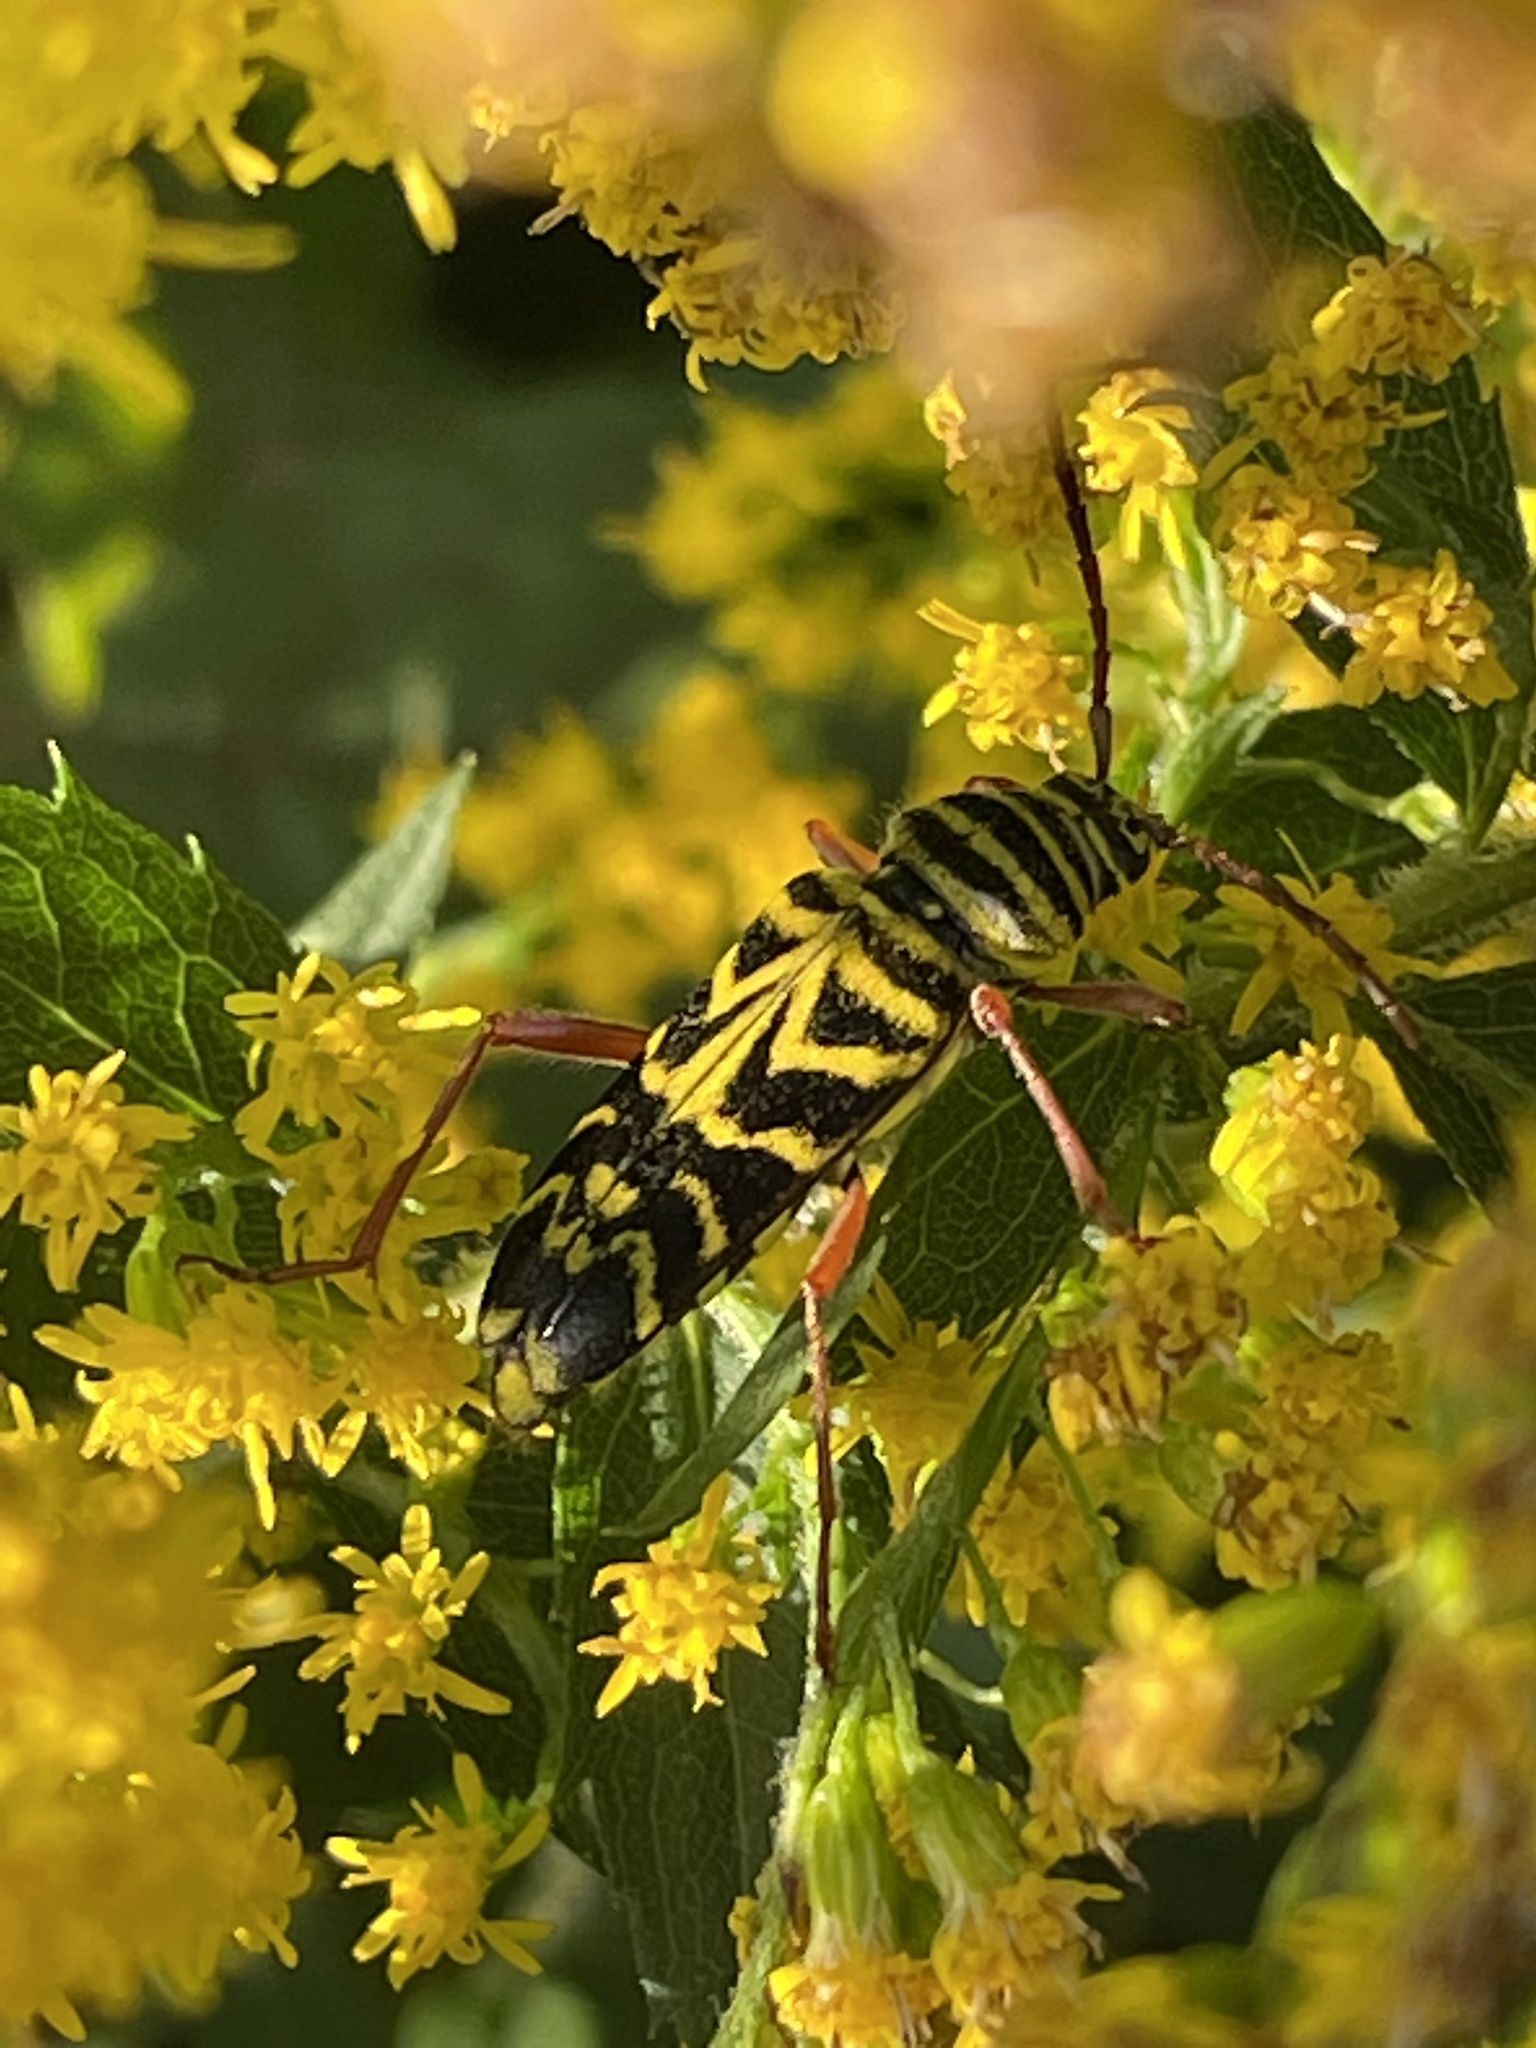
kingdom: Animalia
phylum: Arthropoda
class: Insecta
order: Coleoptera
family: Cerambycidae
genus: Megacyllene
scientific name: Megacyllene robiniae
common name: Locust borer
